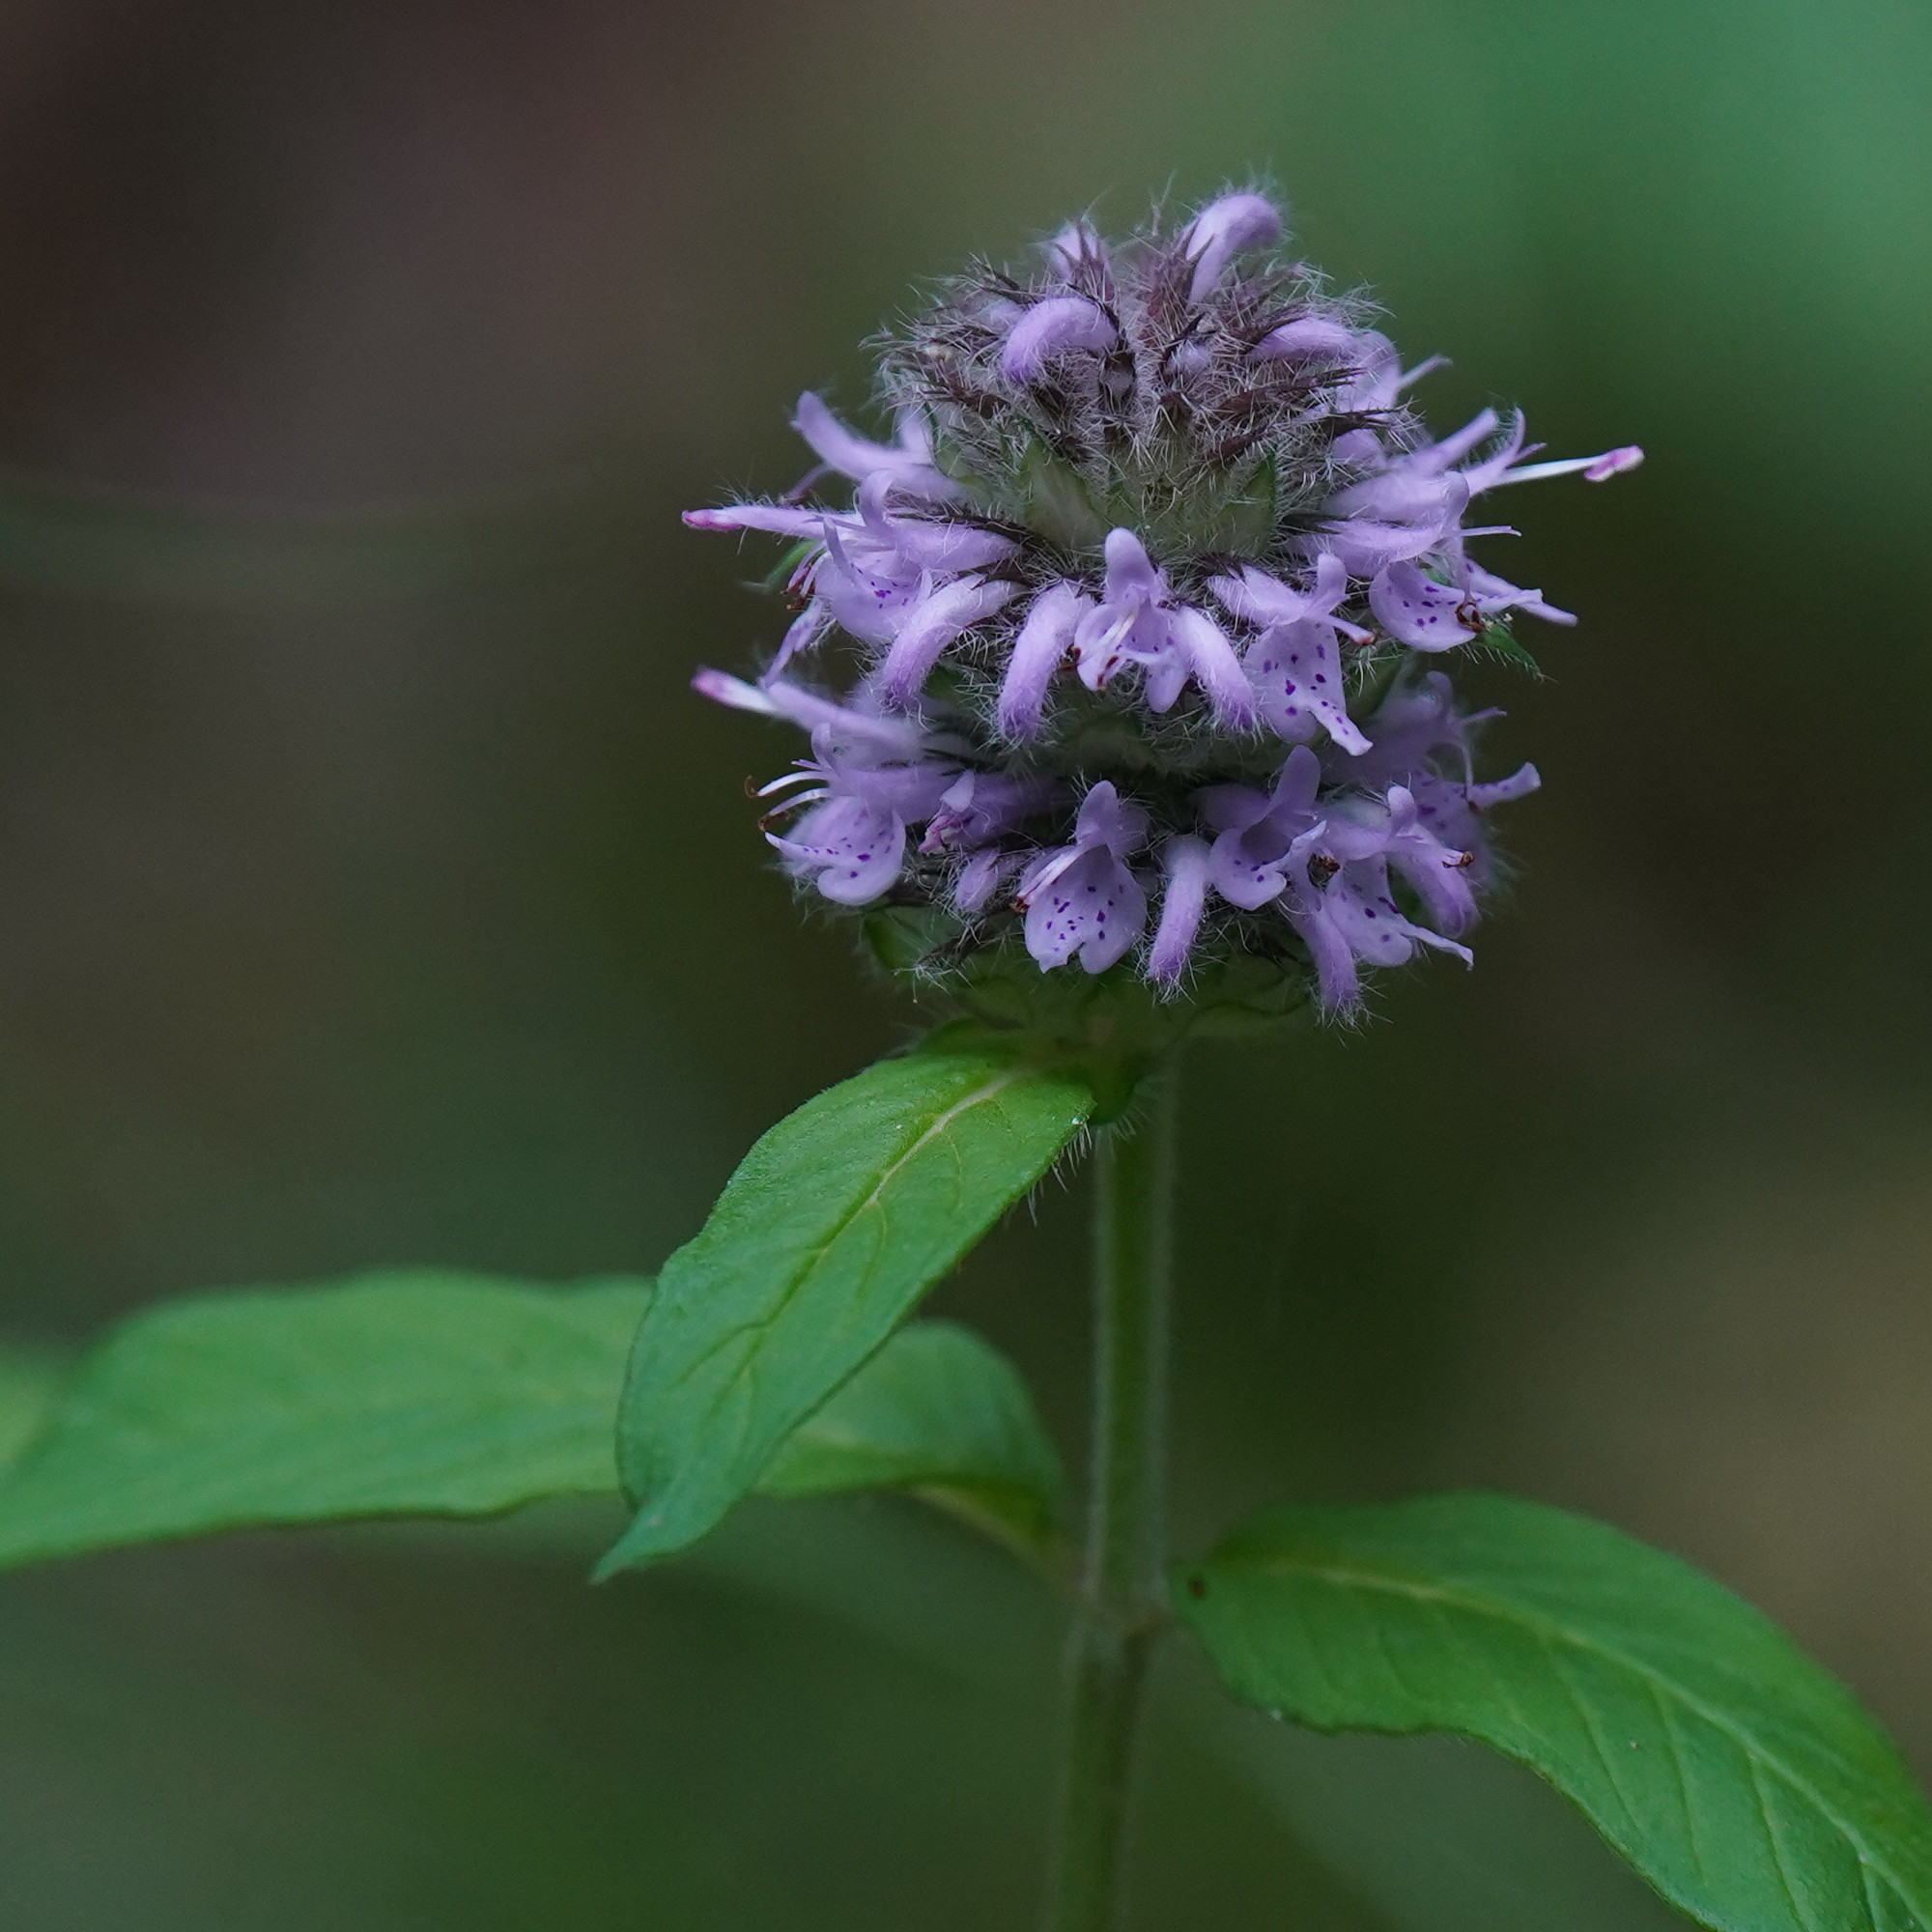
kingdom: Plantae
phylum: Tracheophyta
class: Magnoliopsida
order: Lamiales
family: Lamiaceae
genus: Blephilia
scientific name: Blephilia ciliata
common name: Downy blephilia
